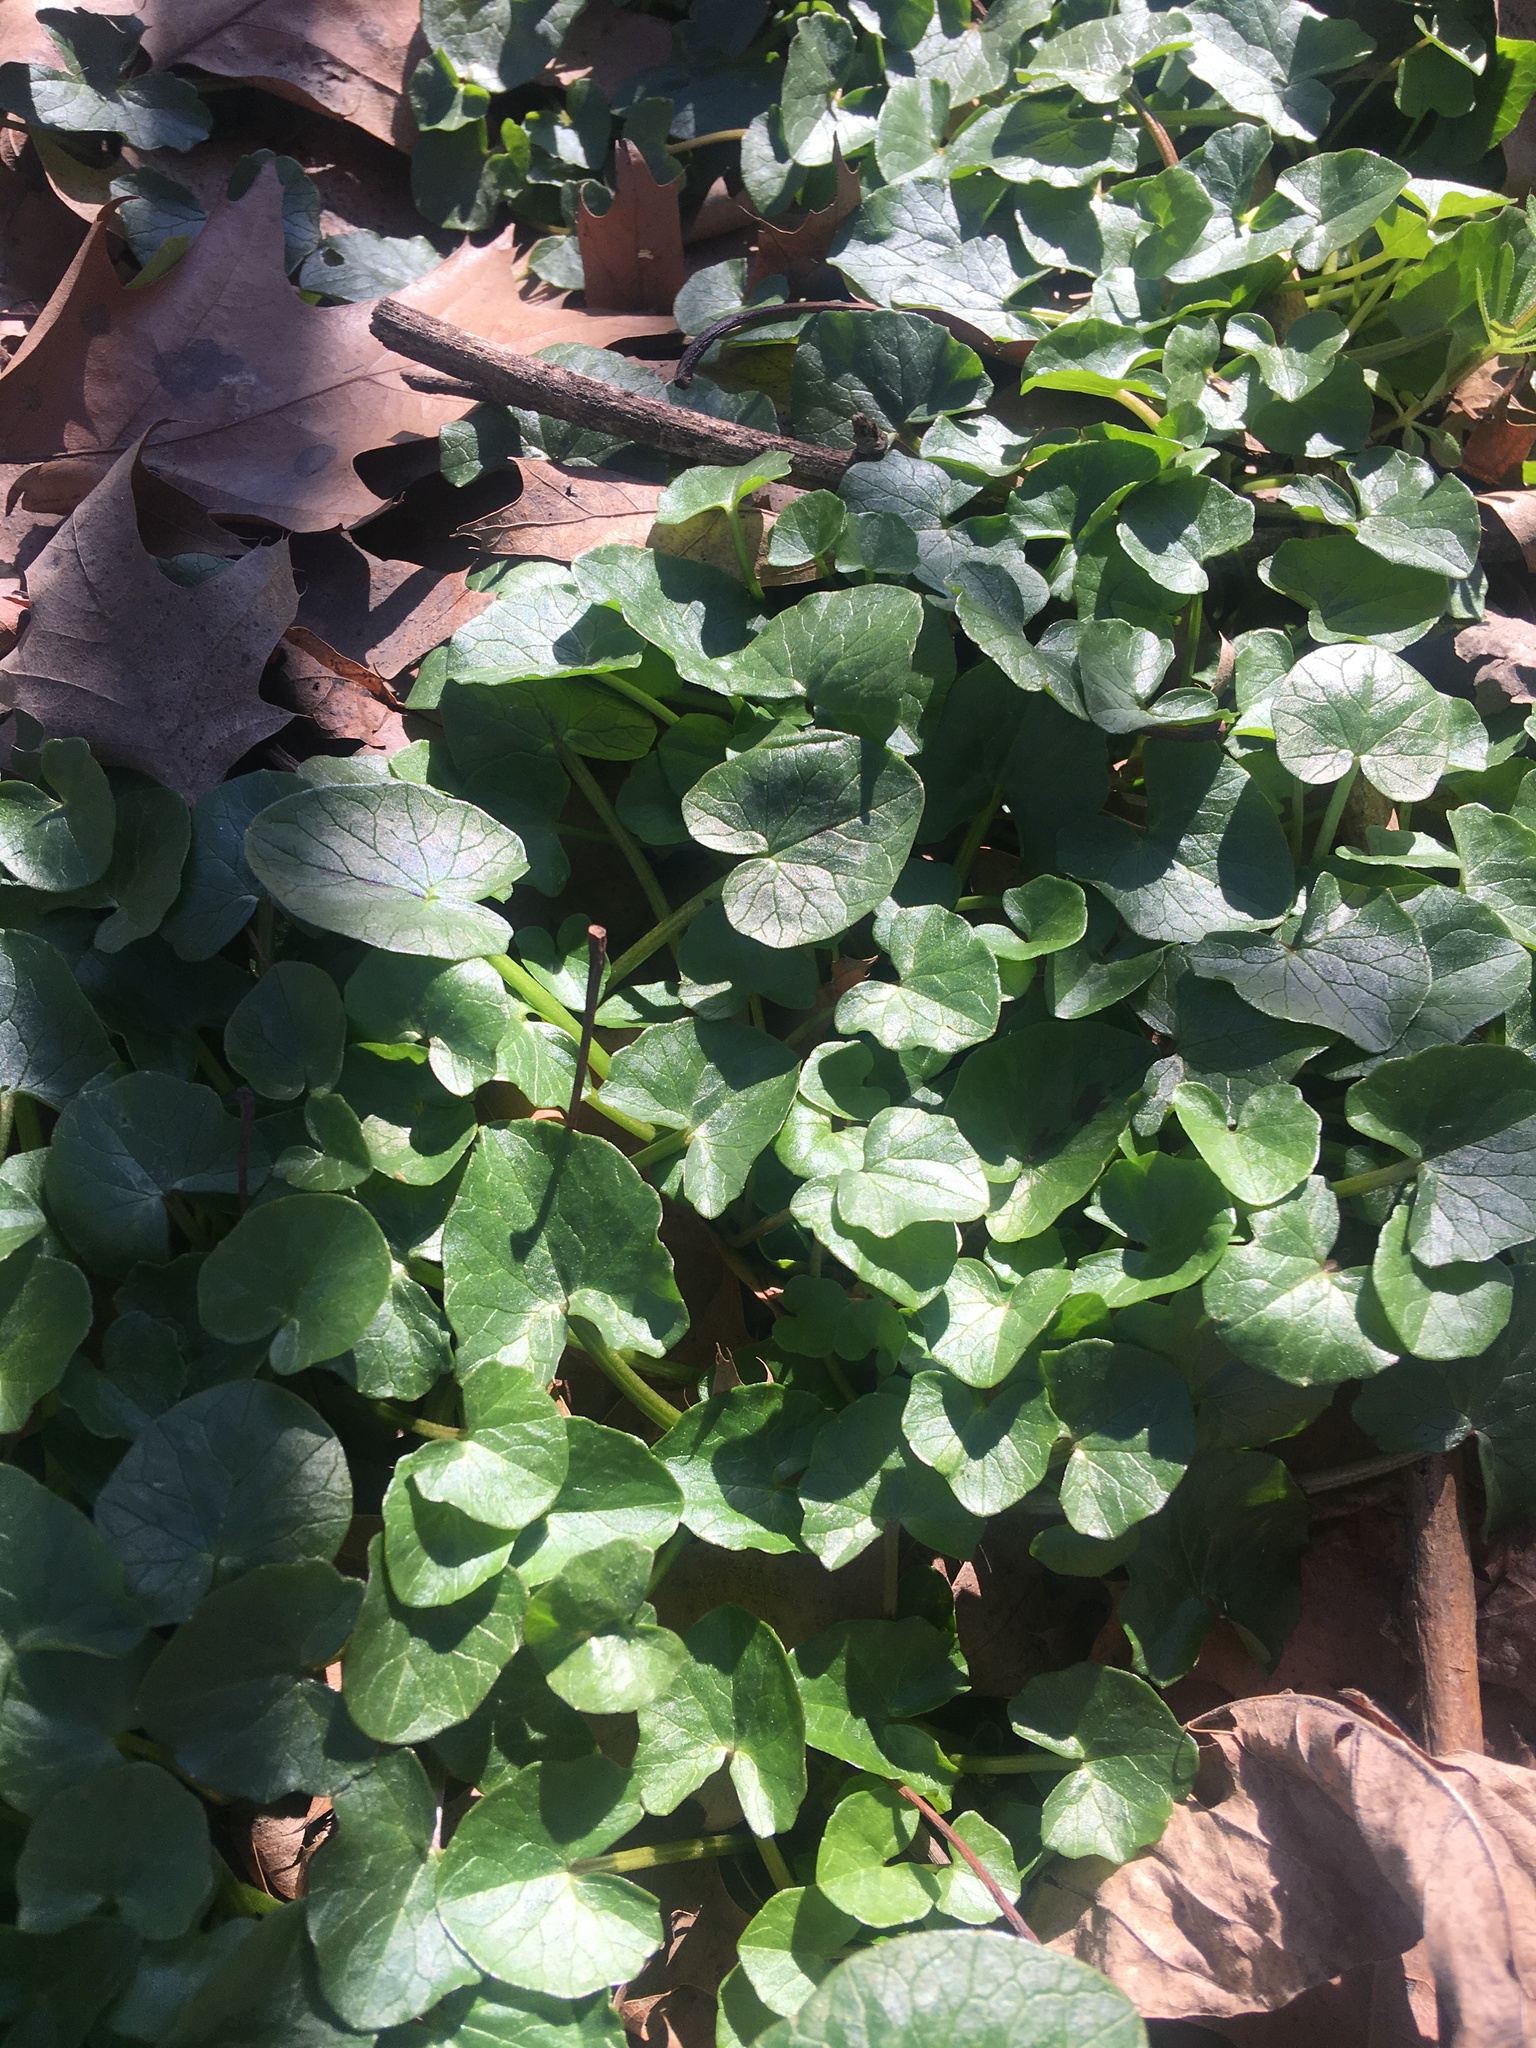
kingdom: Plantae
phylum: Tracheophyta
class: Magnoliopsida
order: Ranunculales
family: Ranunculaceae
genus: Ficaria
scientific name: Ficaria verna
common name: Lesser celandine
